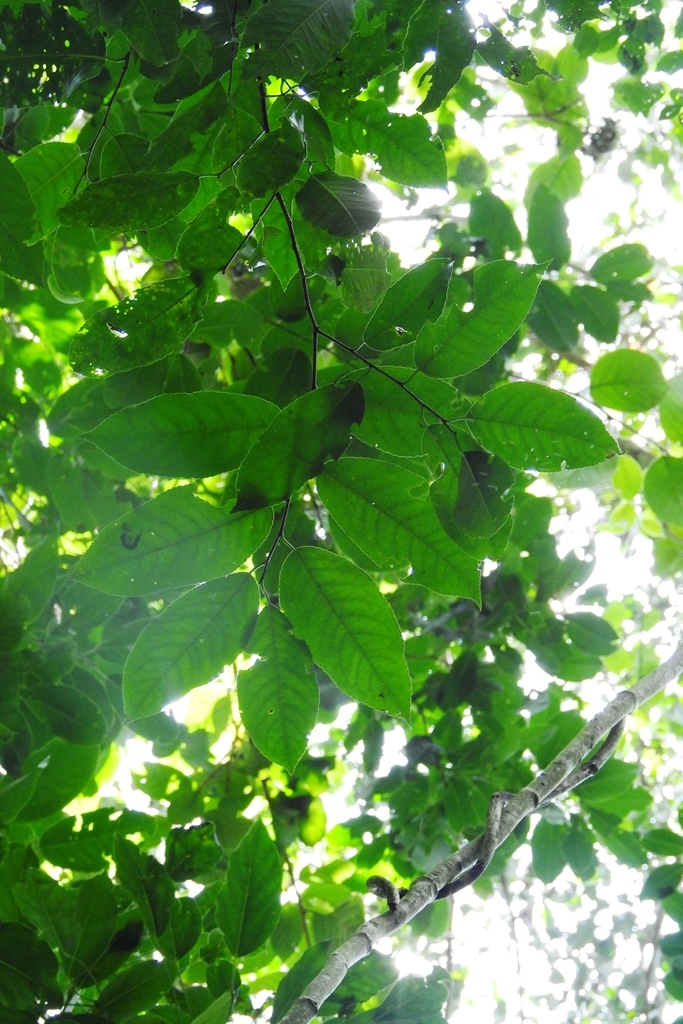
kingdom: Plantae
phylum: Tracheophyta
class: Magnoliopsida
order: Rosales
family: Rosaceae
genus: Prunus
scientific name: Prunus chiapensis
